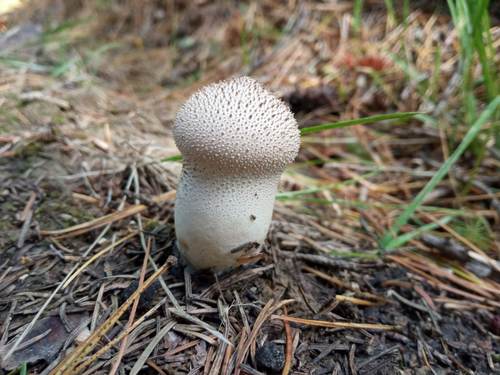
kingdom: Fungi
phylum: Basidiomycota
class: Agaricomycetes
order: Agaricales
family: Lycoperdaceae
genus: Lycoperdon
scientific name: Lycoperdon perlatum
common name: Common puffball
